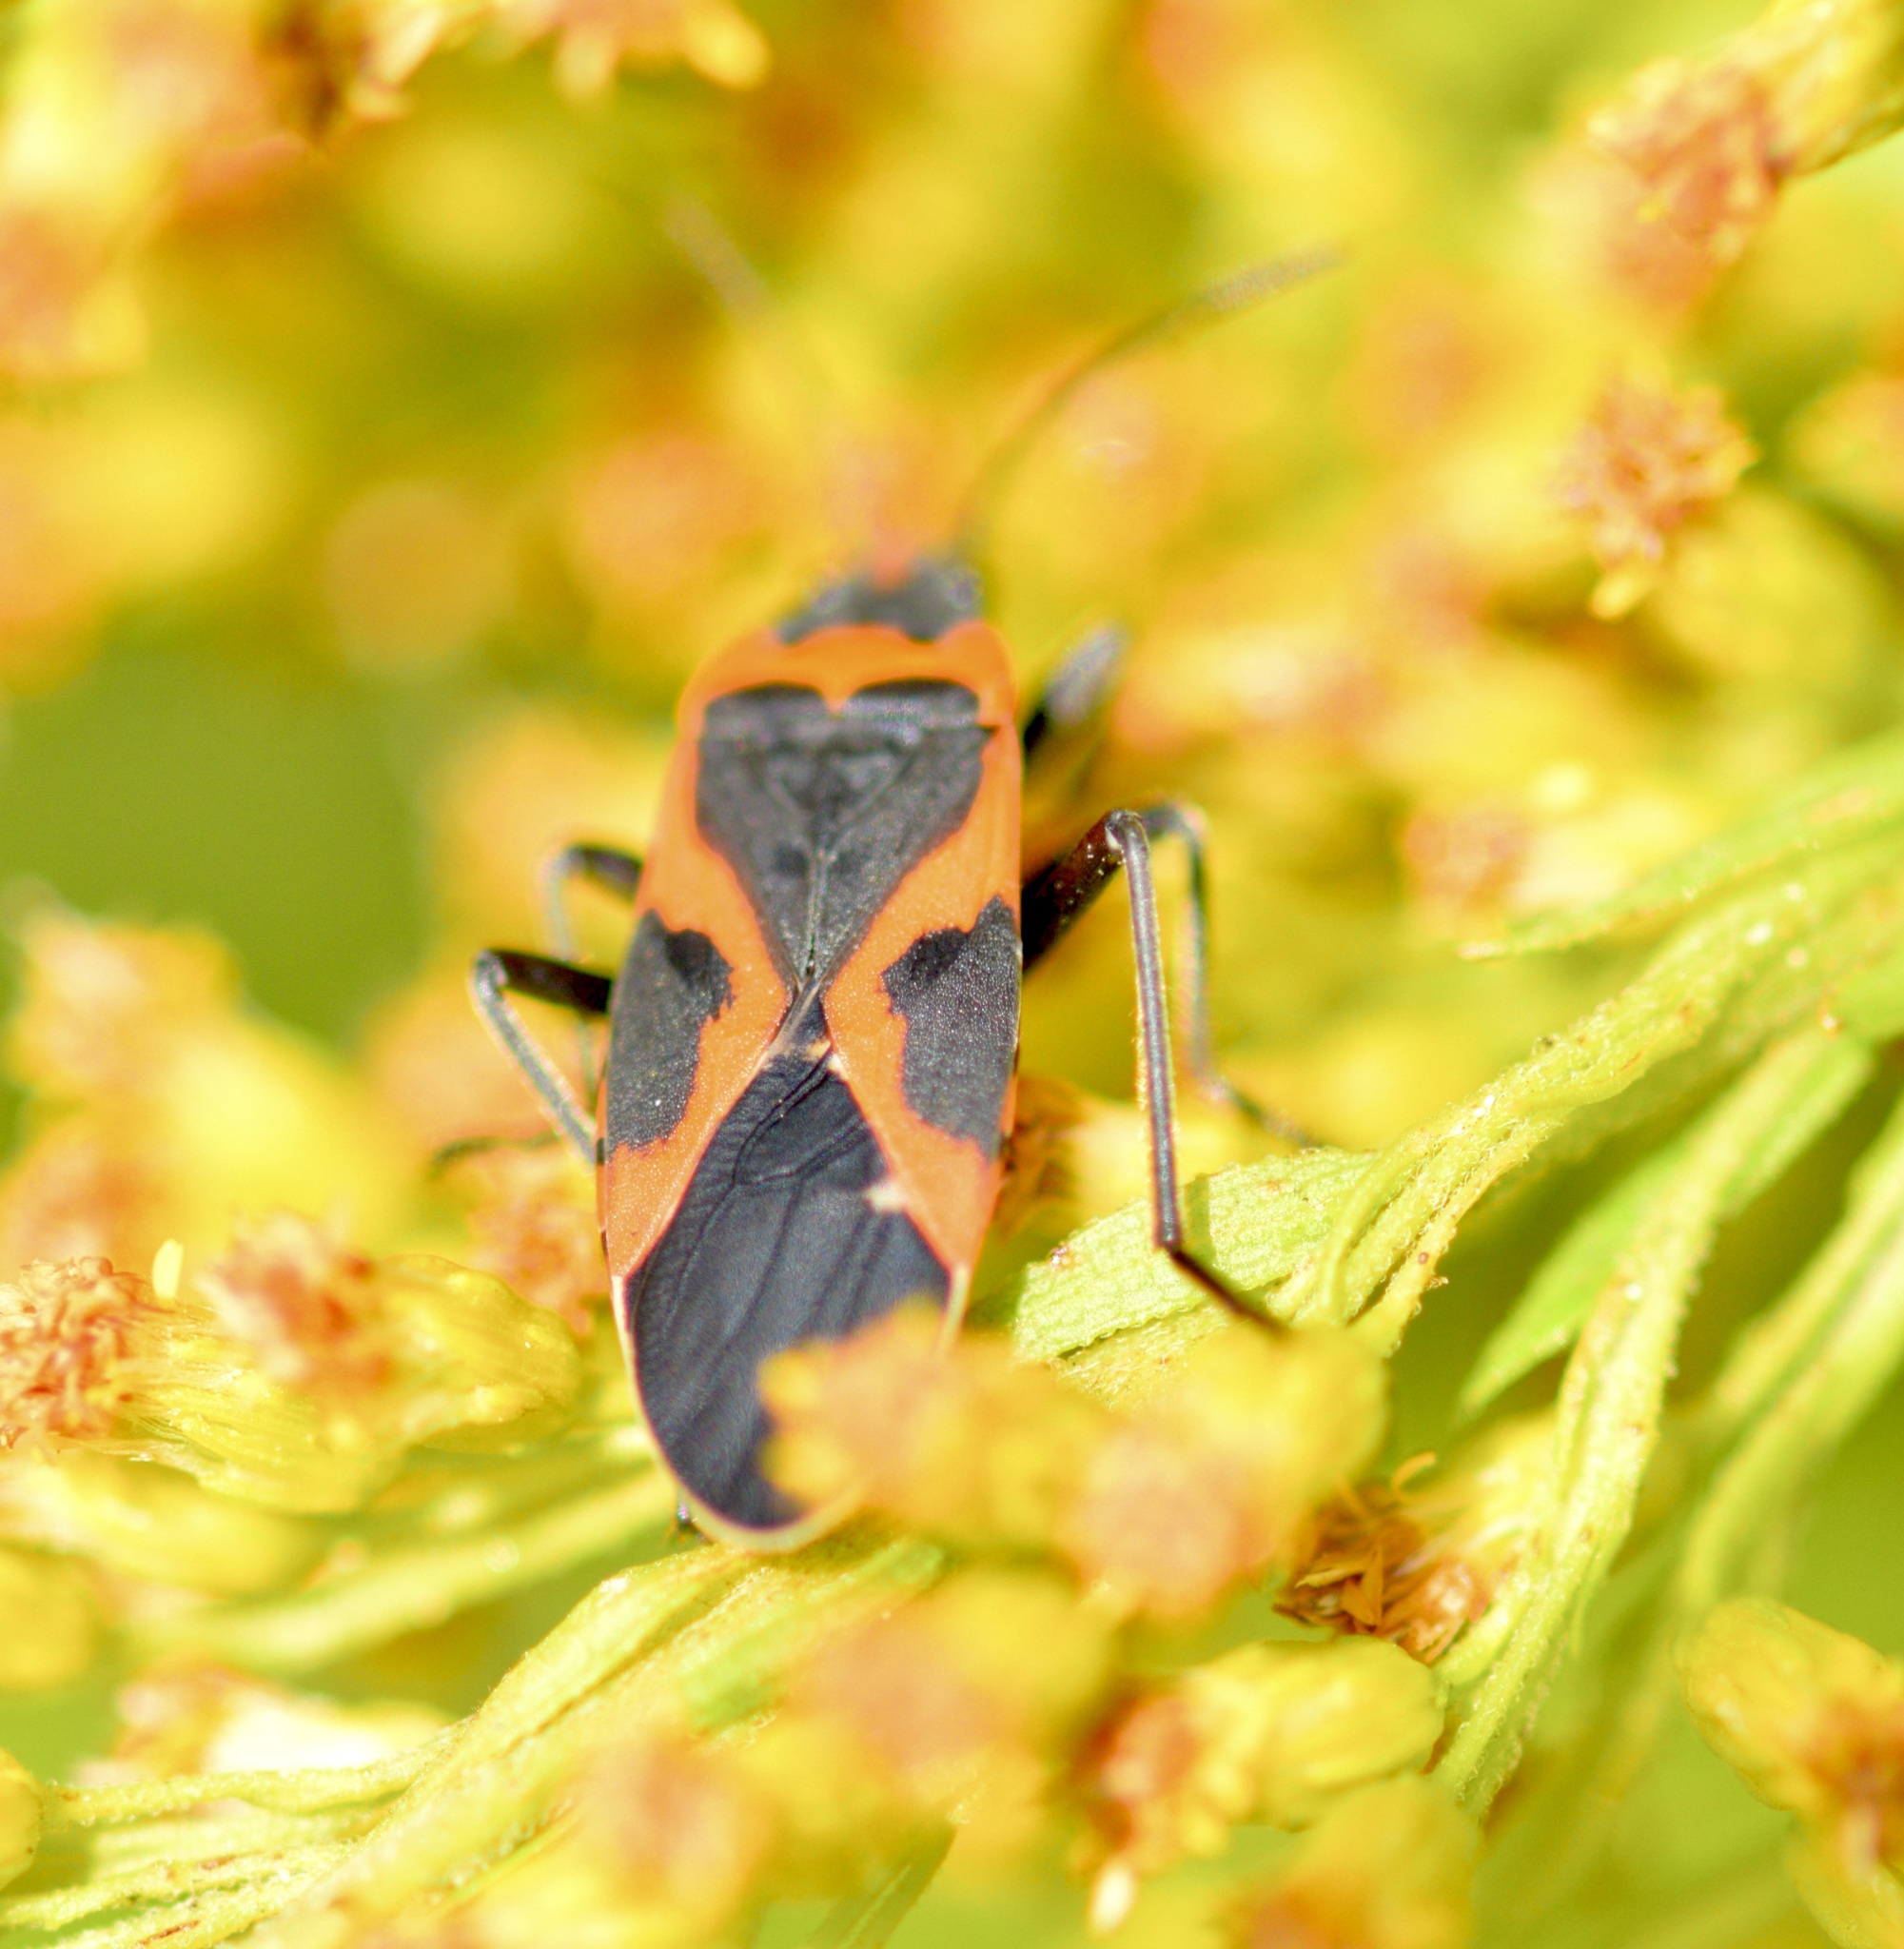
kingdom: Animalia
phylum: Arthropoda
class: Insecta
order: Hemiptera
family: Lygaeidae
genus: Lygaeus
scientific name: Lygaeus kalmii
